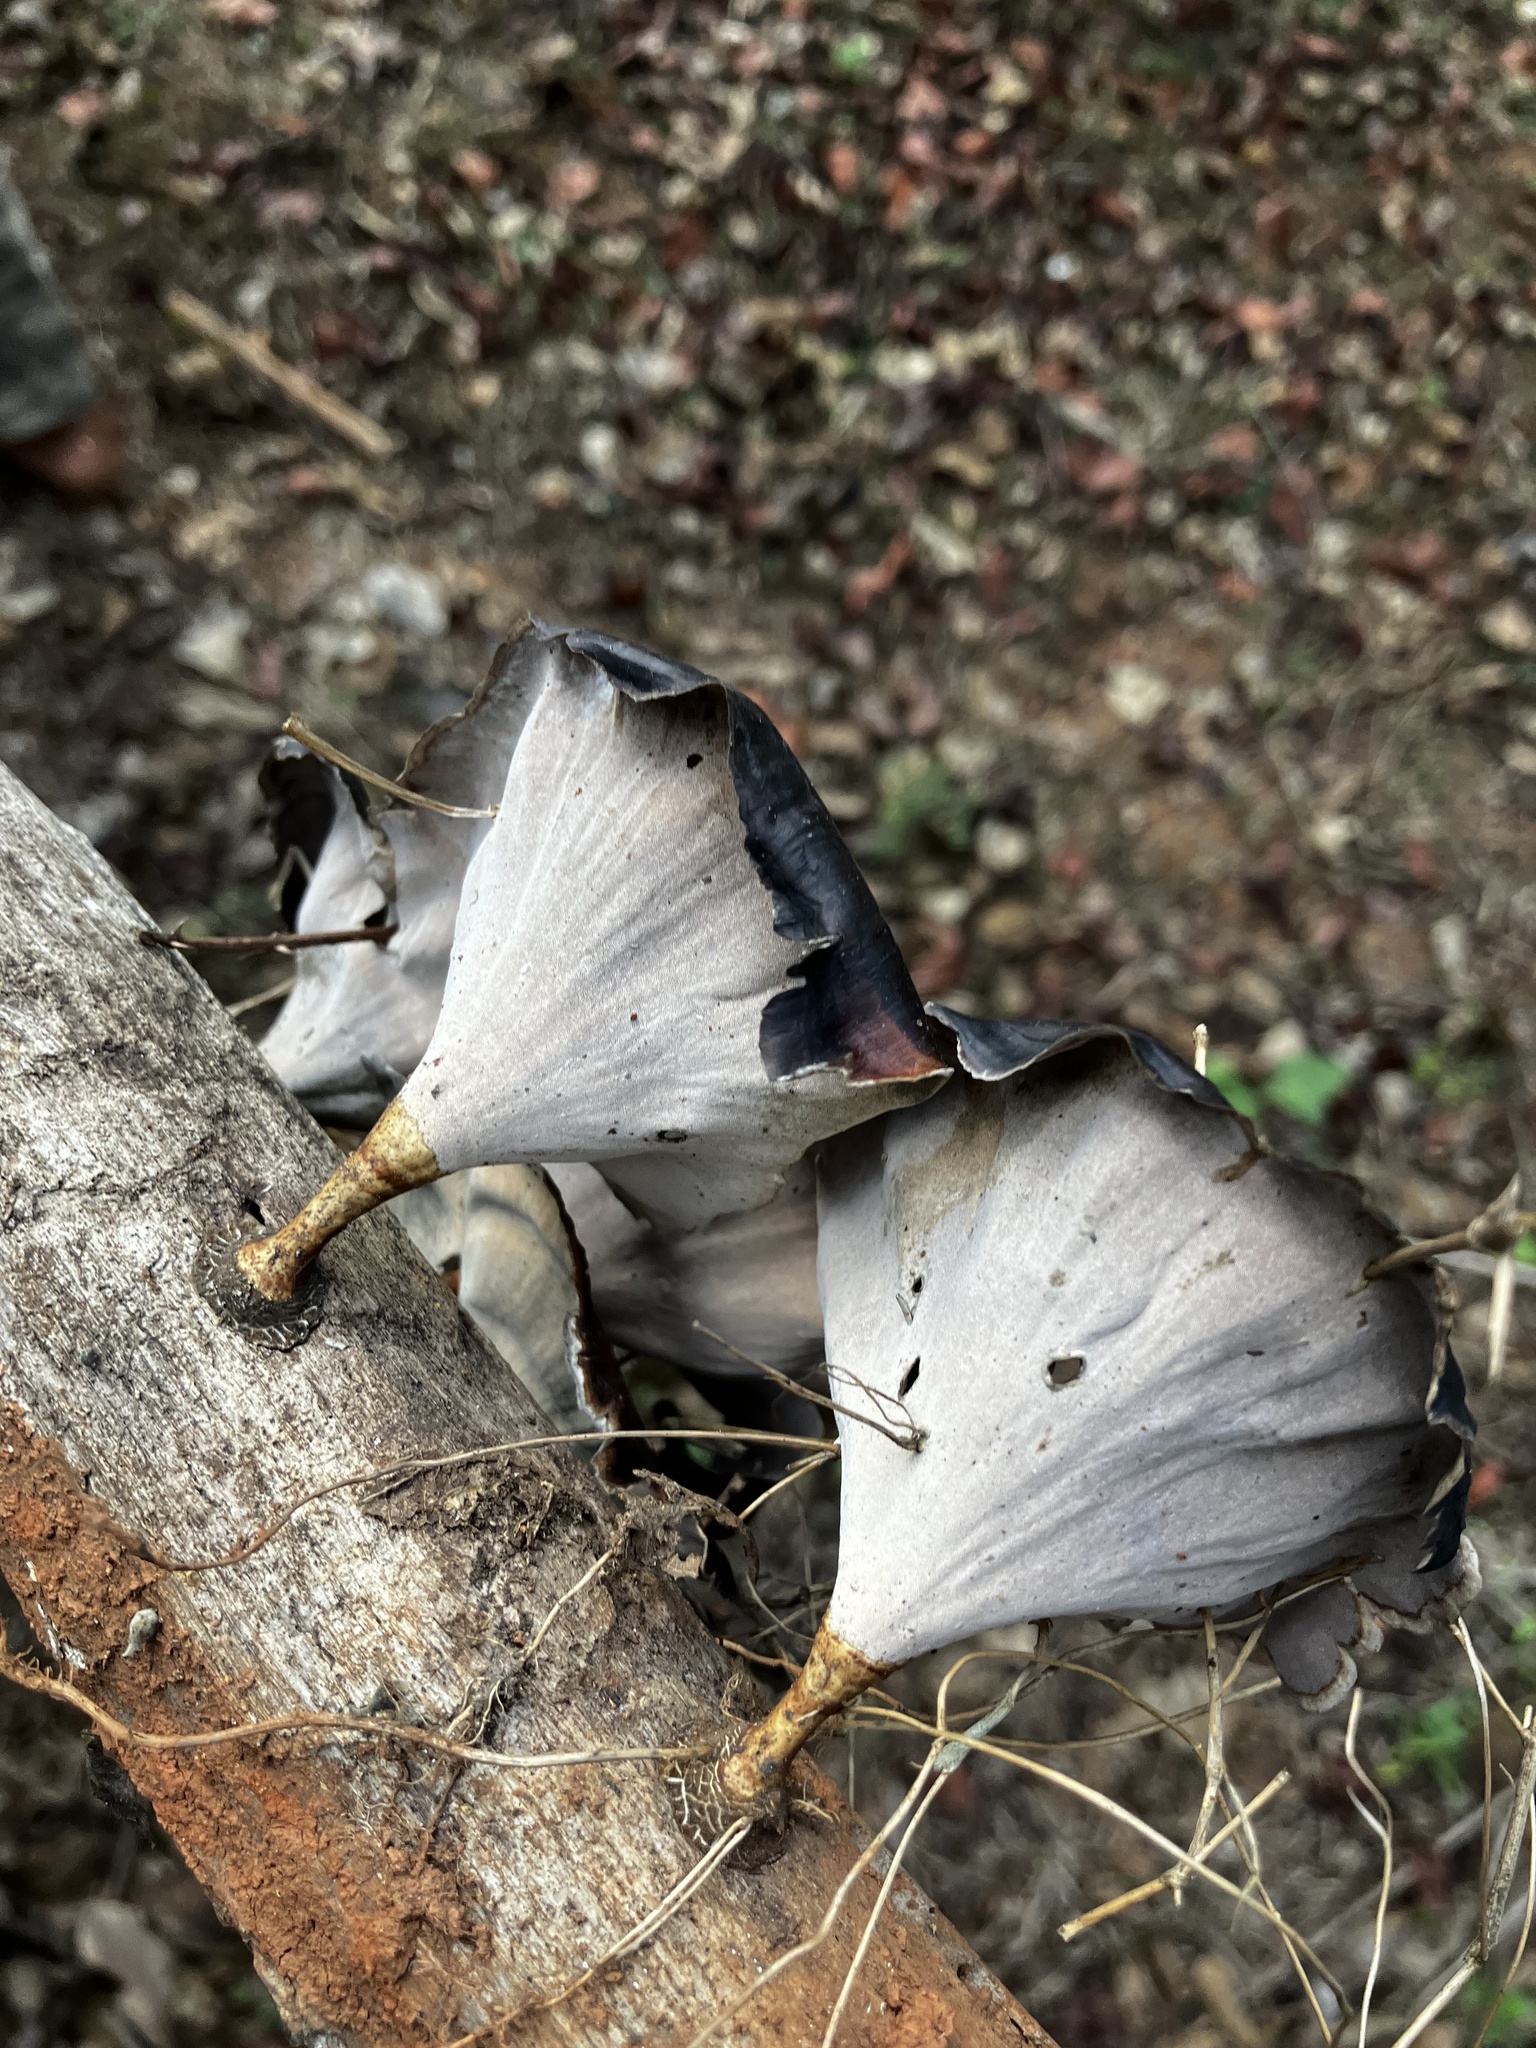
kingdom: Fungi
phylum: Basidiomycota
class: Agaricomycetes
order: Polyporales
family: Polyporaceae
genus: Microporus
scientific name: Microporus xanthopus
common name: Yellow-stemmed micropore
